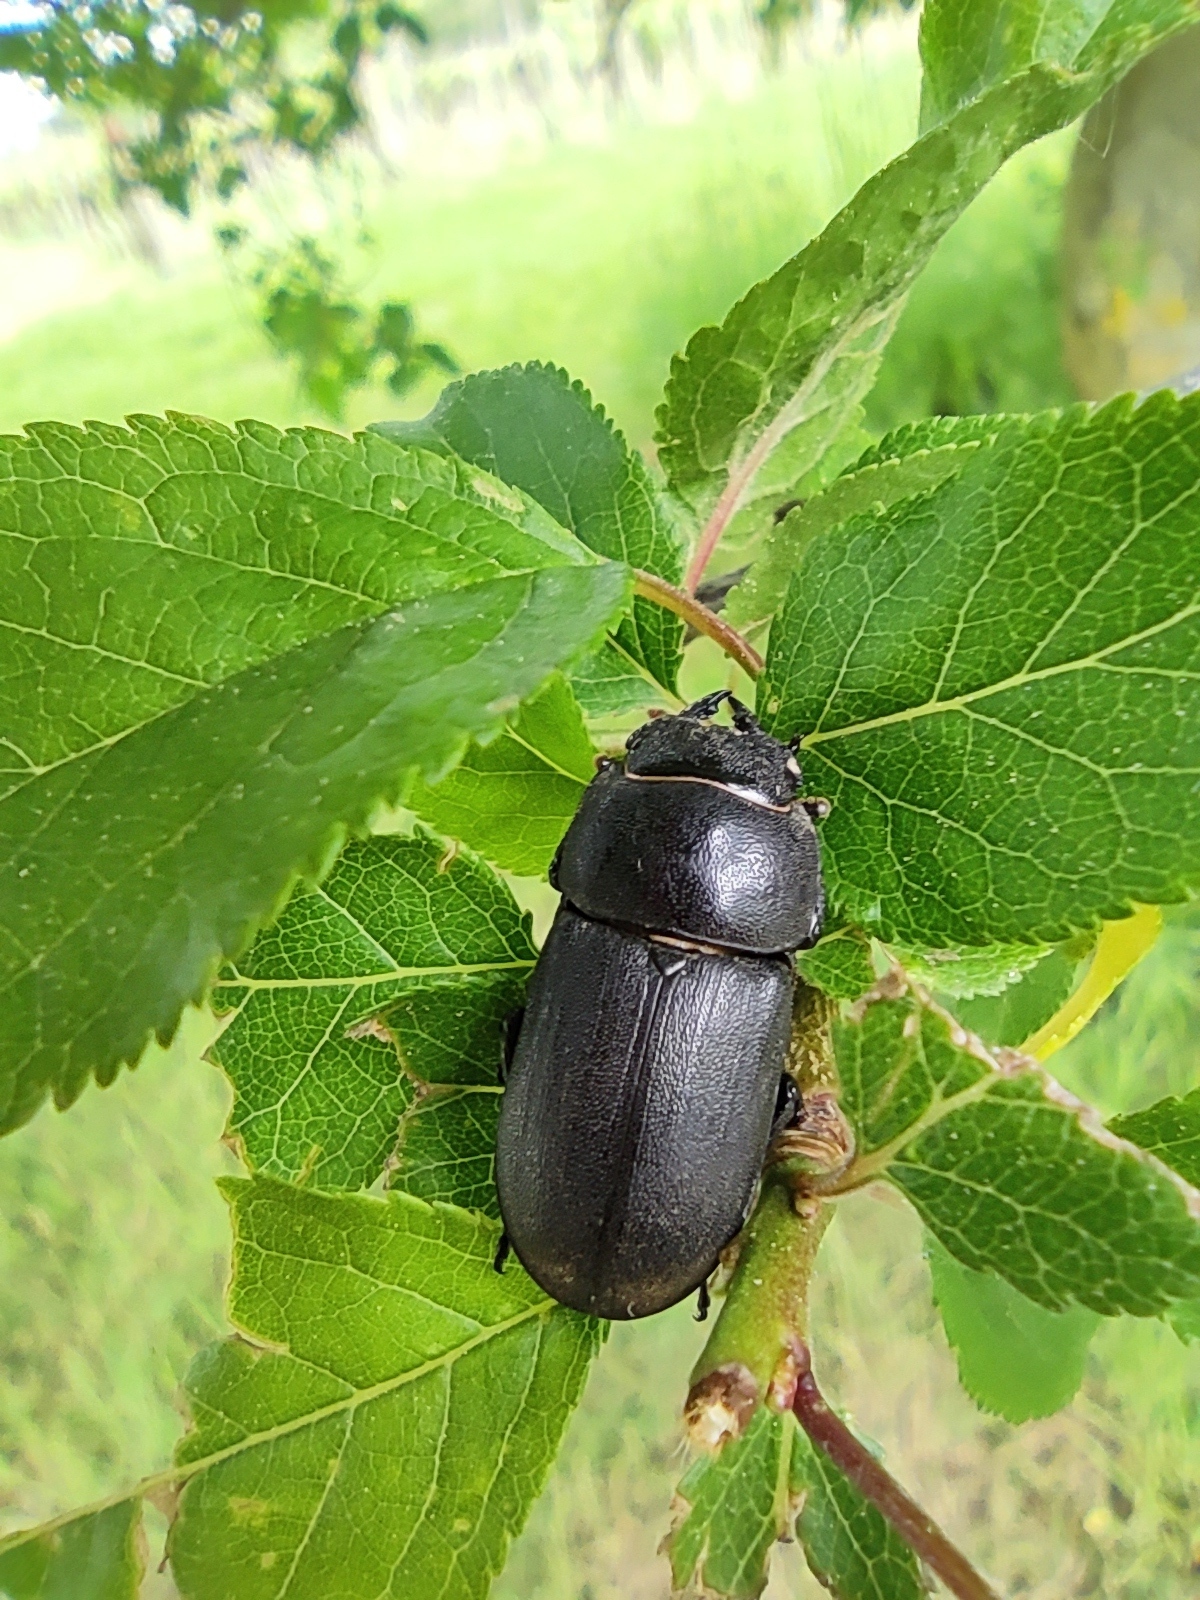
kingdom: Animalia
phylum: Arthropoda
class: Insecta
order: Coleoptera
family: Lucanidae
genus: Dorcus
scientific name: Dorcus parallelipipedus
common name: Lesser stag beetle
